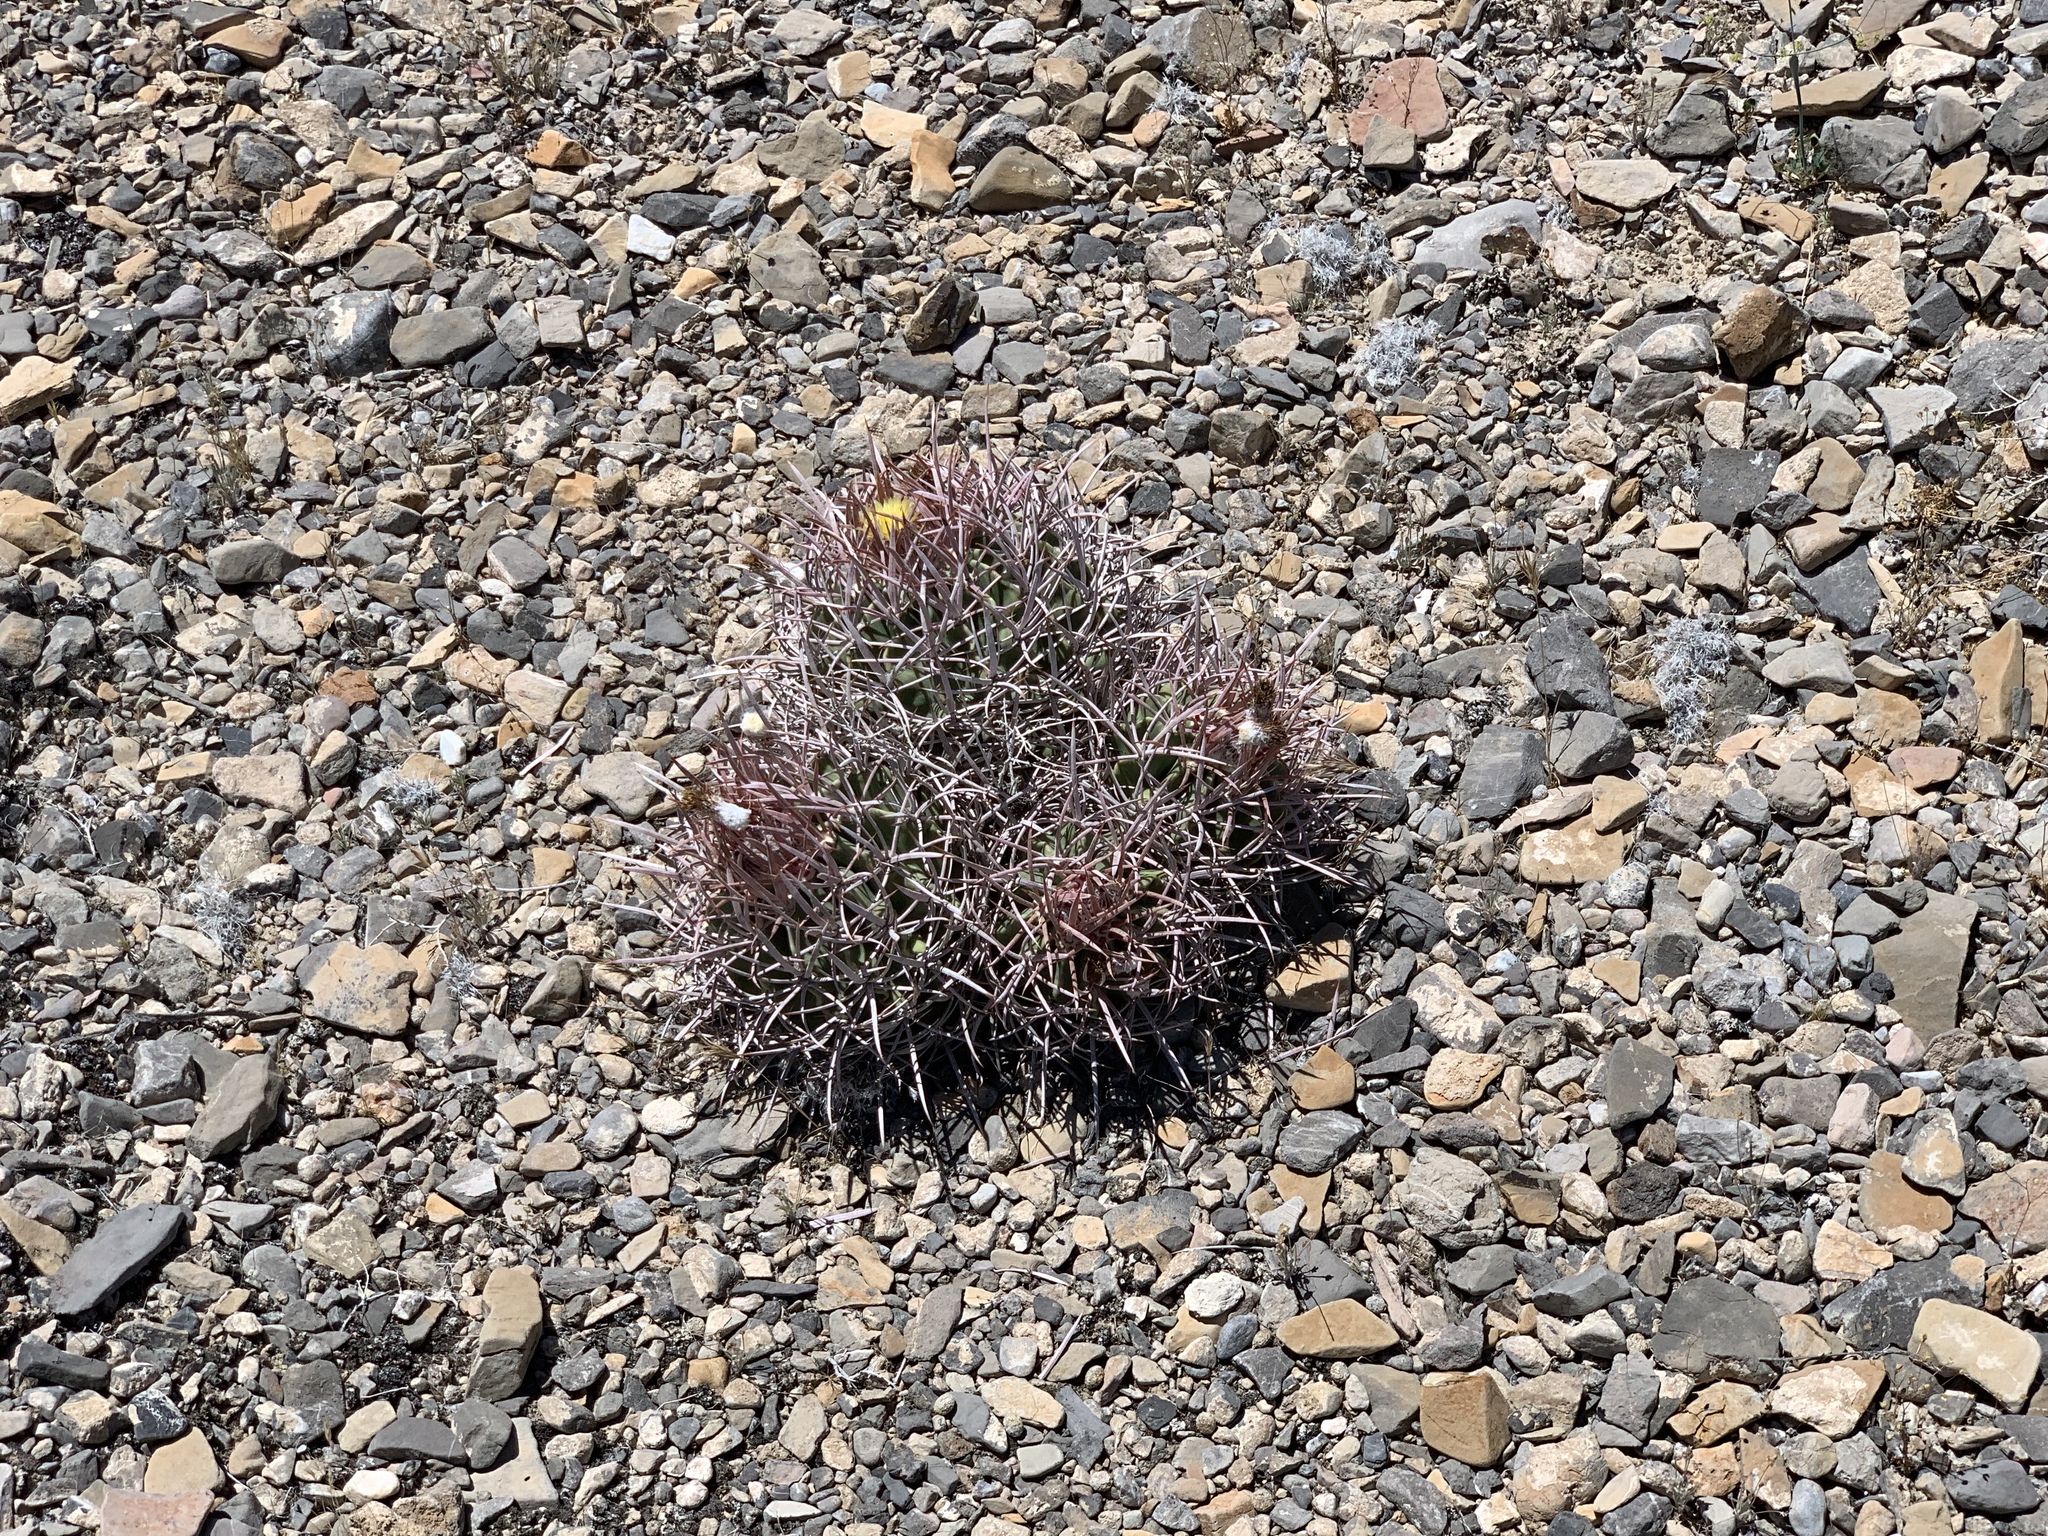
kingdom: Plantae
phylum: Tracheophyta
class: Magnoliopsida
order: Caryophyllales
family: Cactaceae
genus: Echinocactus
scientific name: Echinocactus polycephalus
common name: Cottontop cactus
